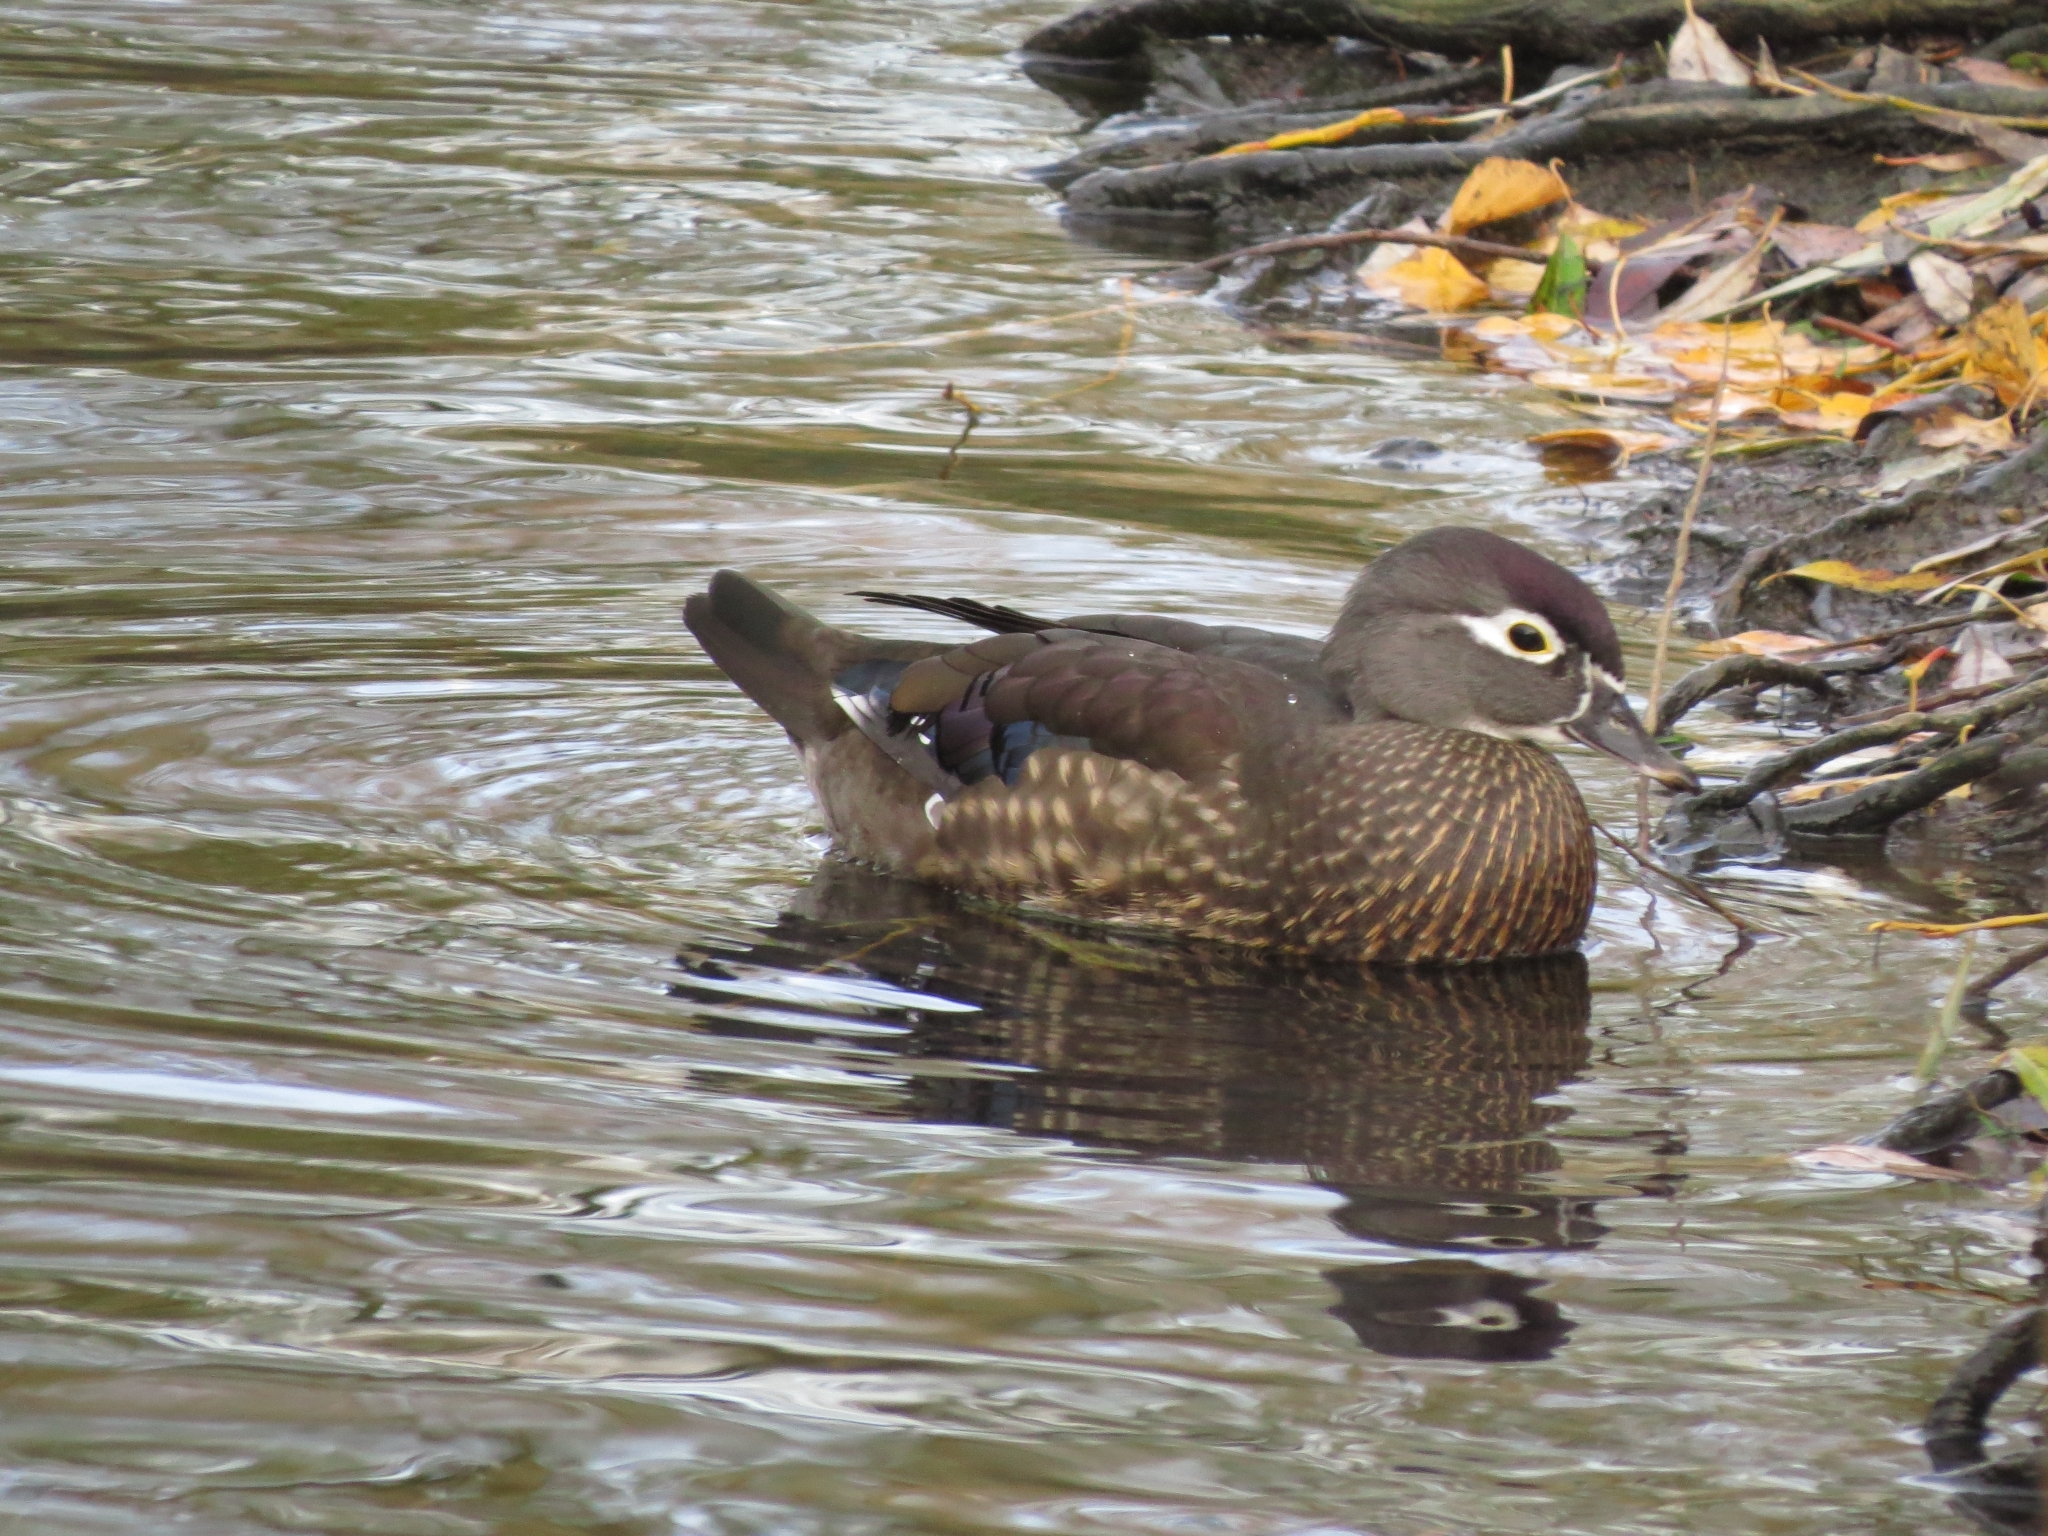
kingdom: Animalia
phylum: Chordata
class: Aves
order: Anseriformes
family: Anatidae
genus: Aix
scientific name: Aix sponsa
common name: Wood duck
